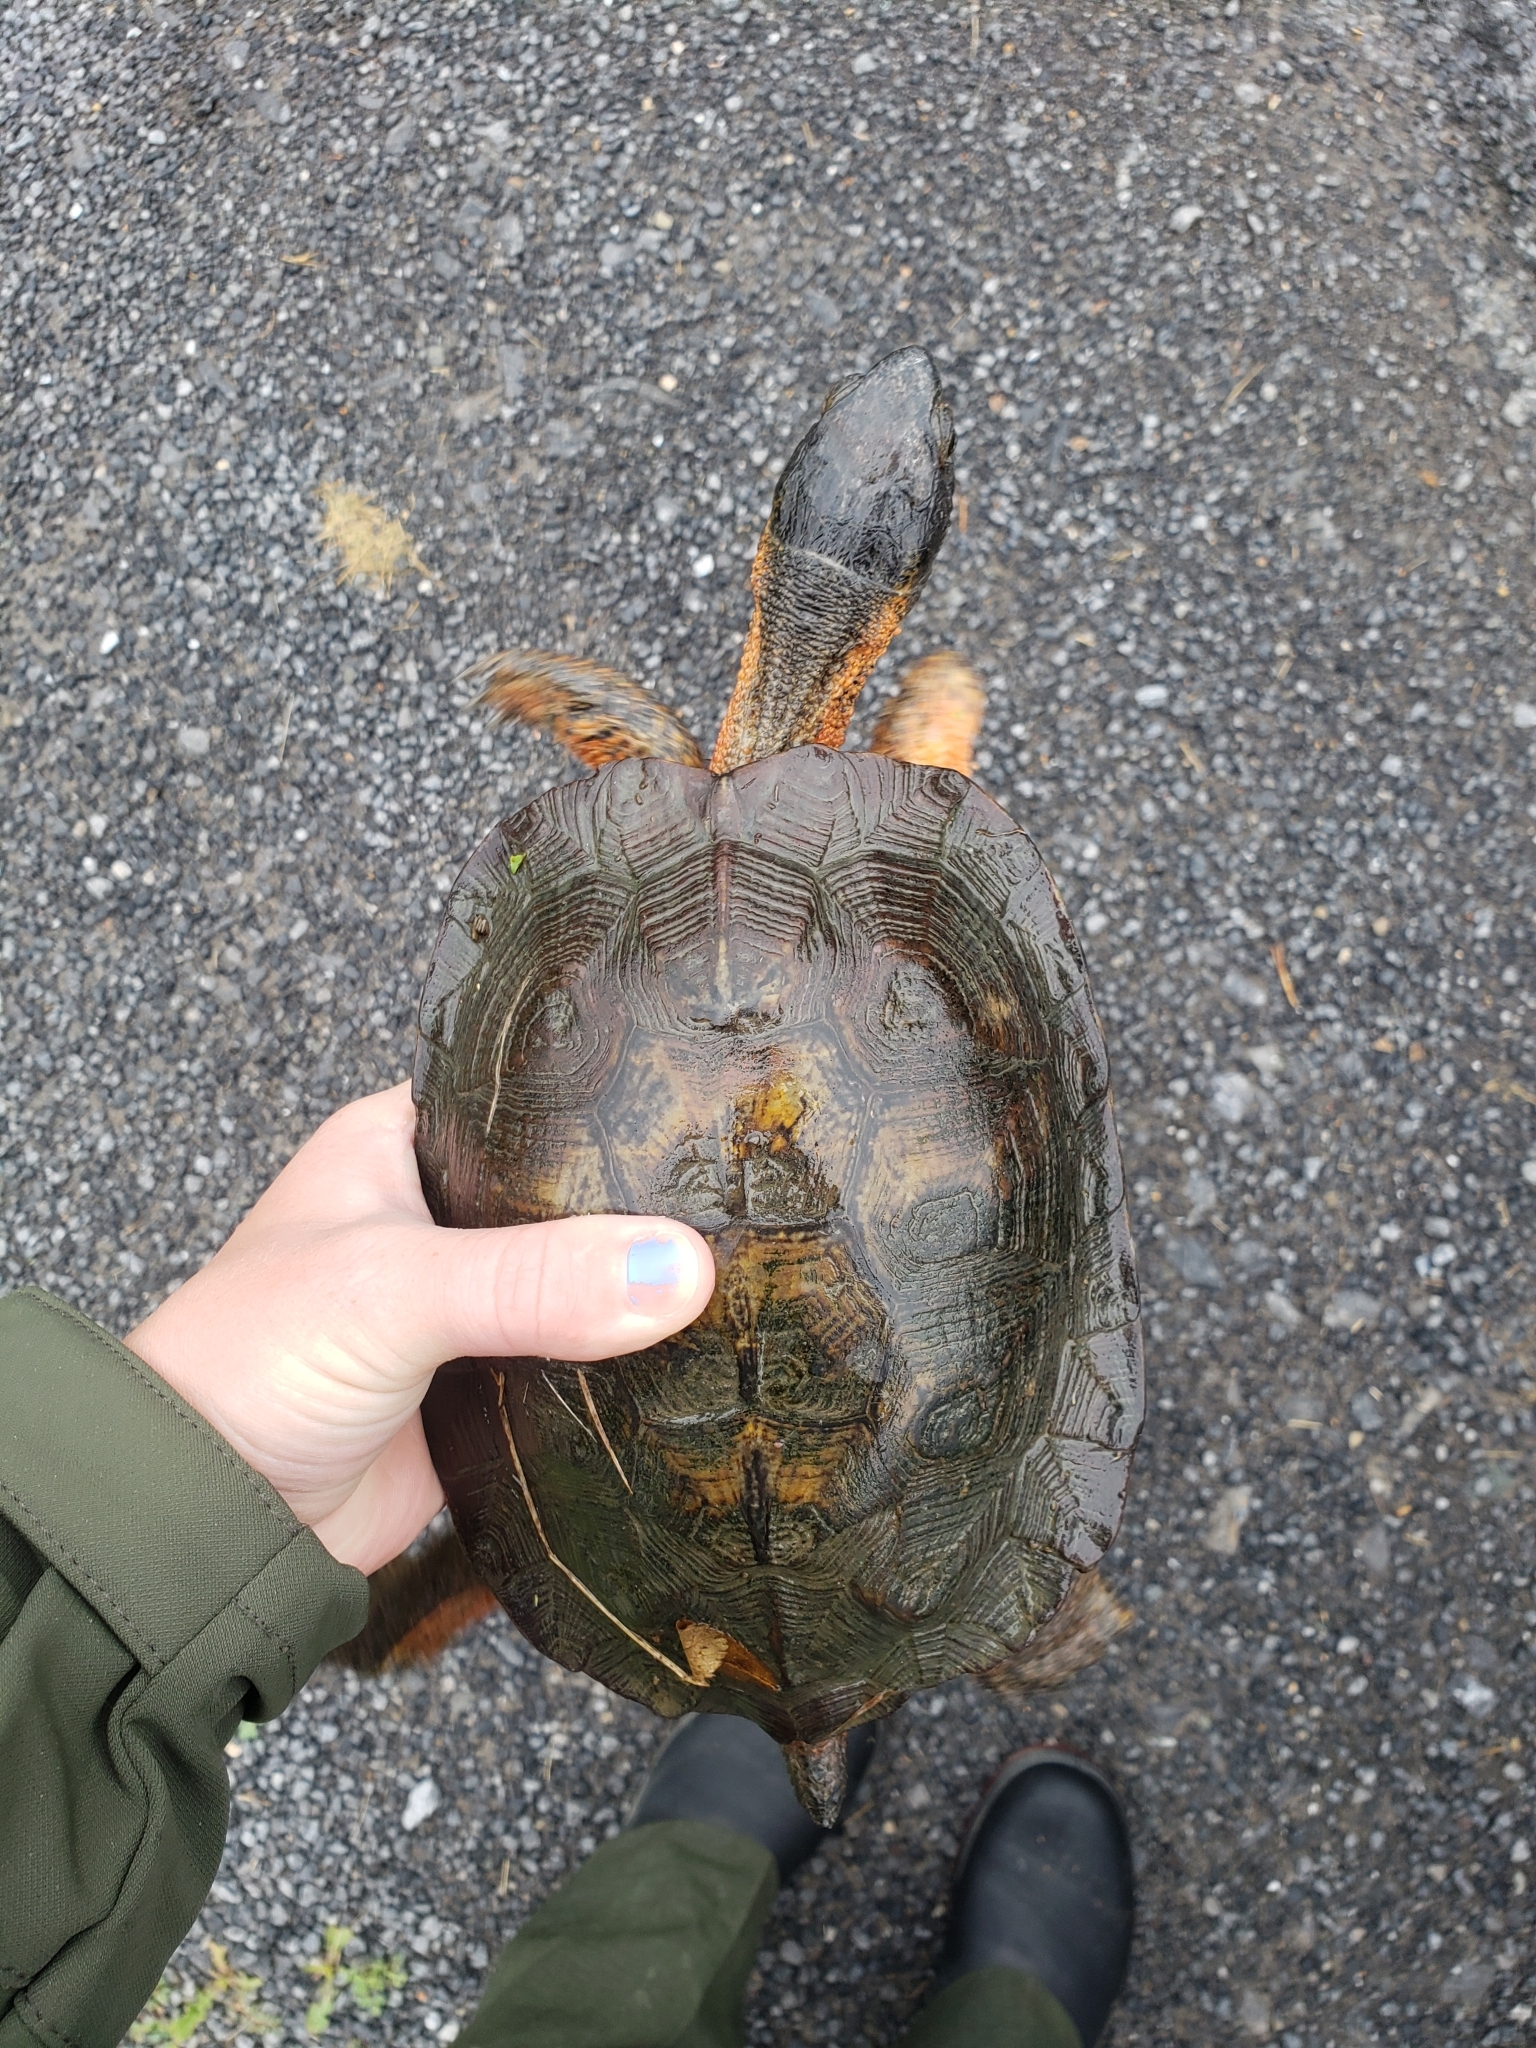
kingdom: Animalia
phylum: Chordata
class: Testudines
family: Emydidae
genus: Glyptemys
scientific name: Glyptemys insculpta
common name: Wood turtle
